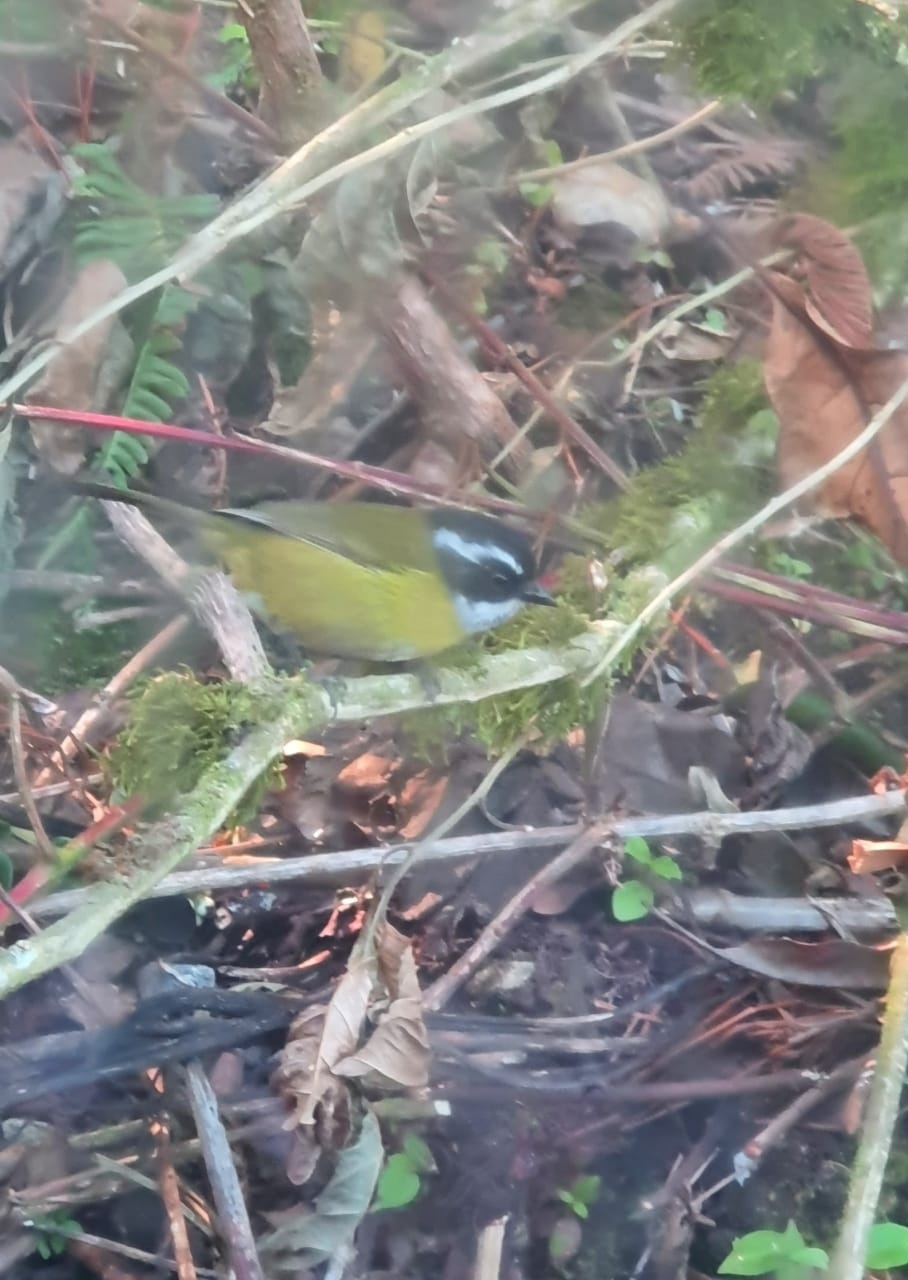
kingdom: Animalia
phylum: Chordata
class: Aves
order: Passeriformes
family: Passerellidae
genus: Chlorospingus
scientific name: Chlorospingus pileatus
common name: Sooty-capped bush-tanager
